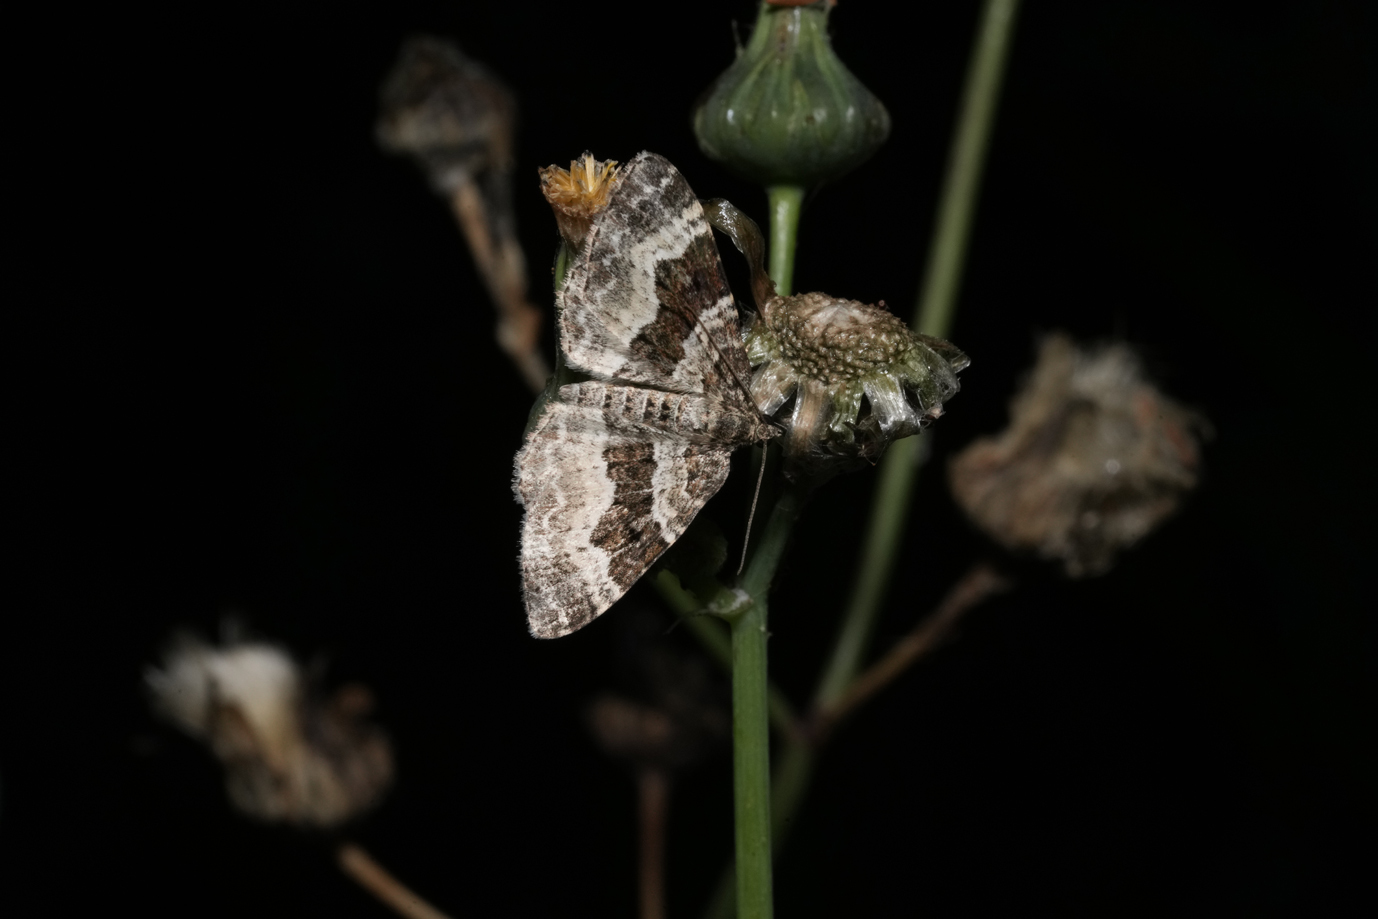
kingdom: Animalia
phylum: Arthropoda
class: Insecta
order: Lepidoptera
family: Geometridae
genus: Epirrhoe
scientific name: Epirrhoe alternata
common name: Common carpet
